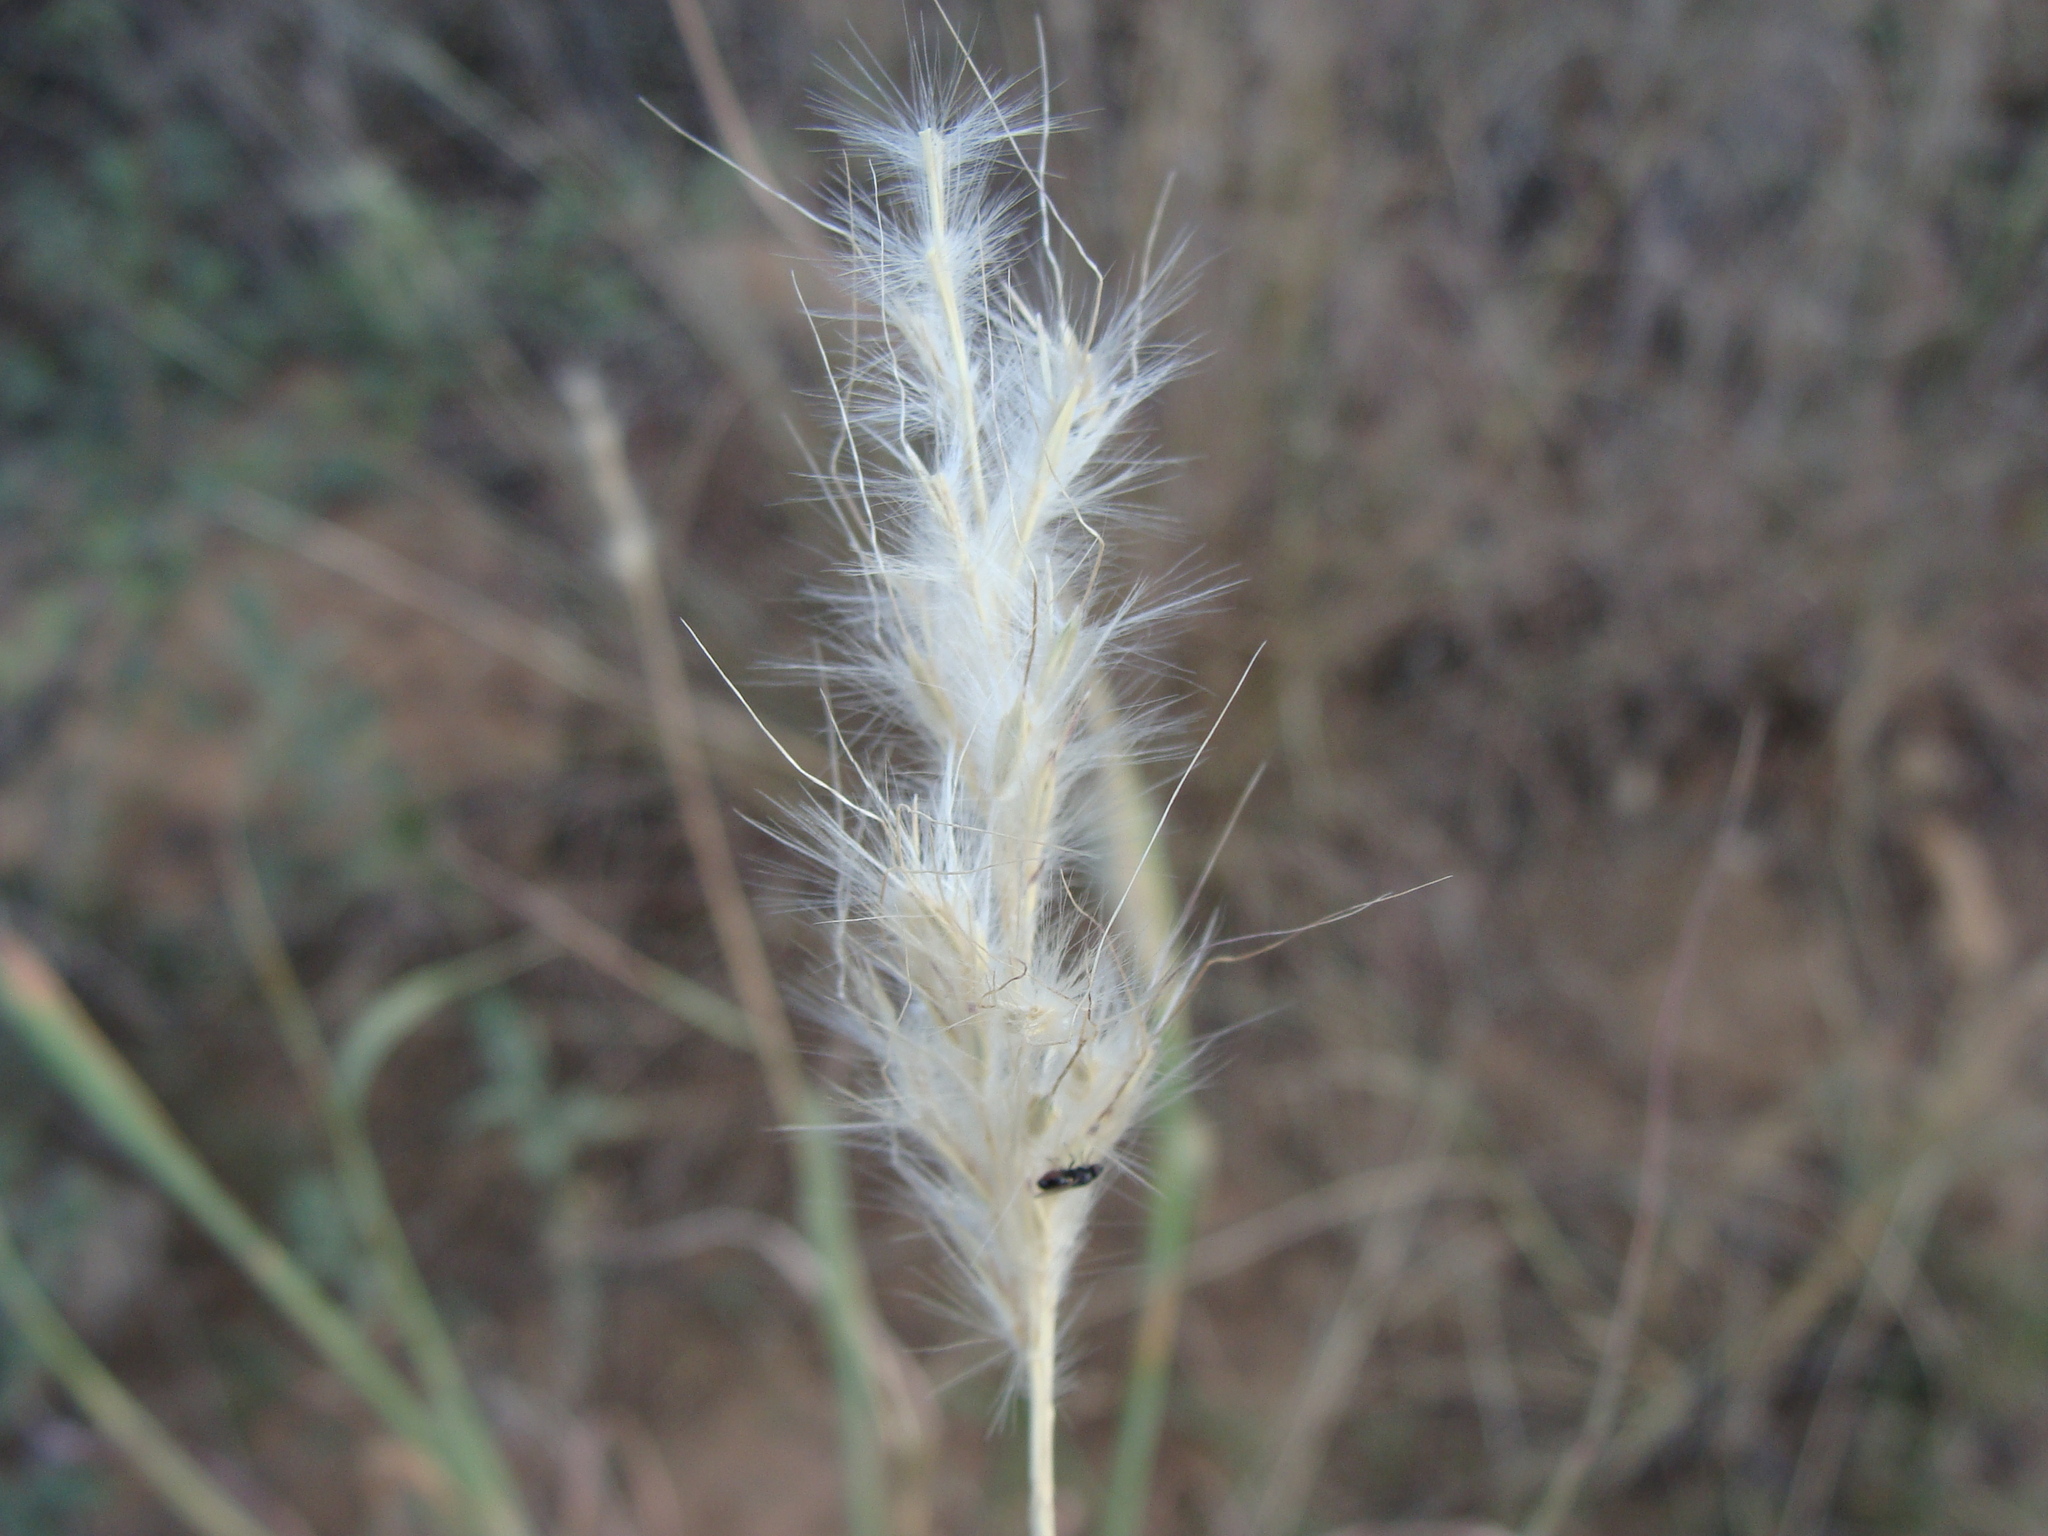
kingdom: Plantae
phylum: Tracheophyta
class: Liliopsida
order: Poales
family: Poaceae
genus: Bothriochloa
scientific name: Bothriochloa barbinodis
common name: Cane bluestem
